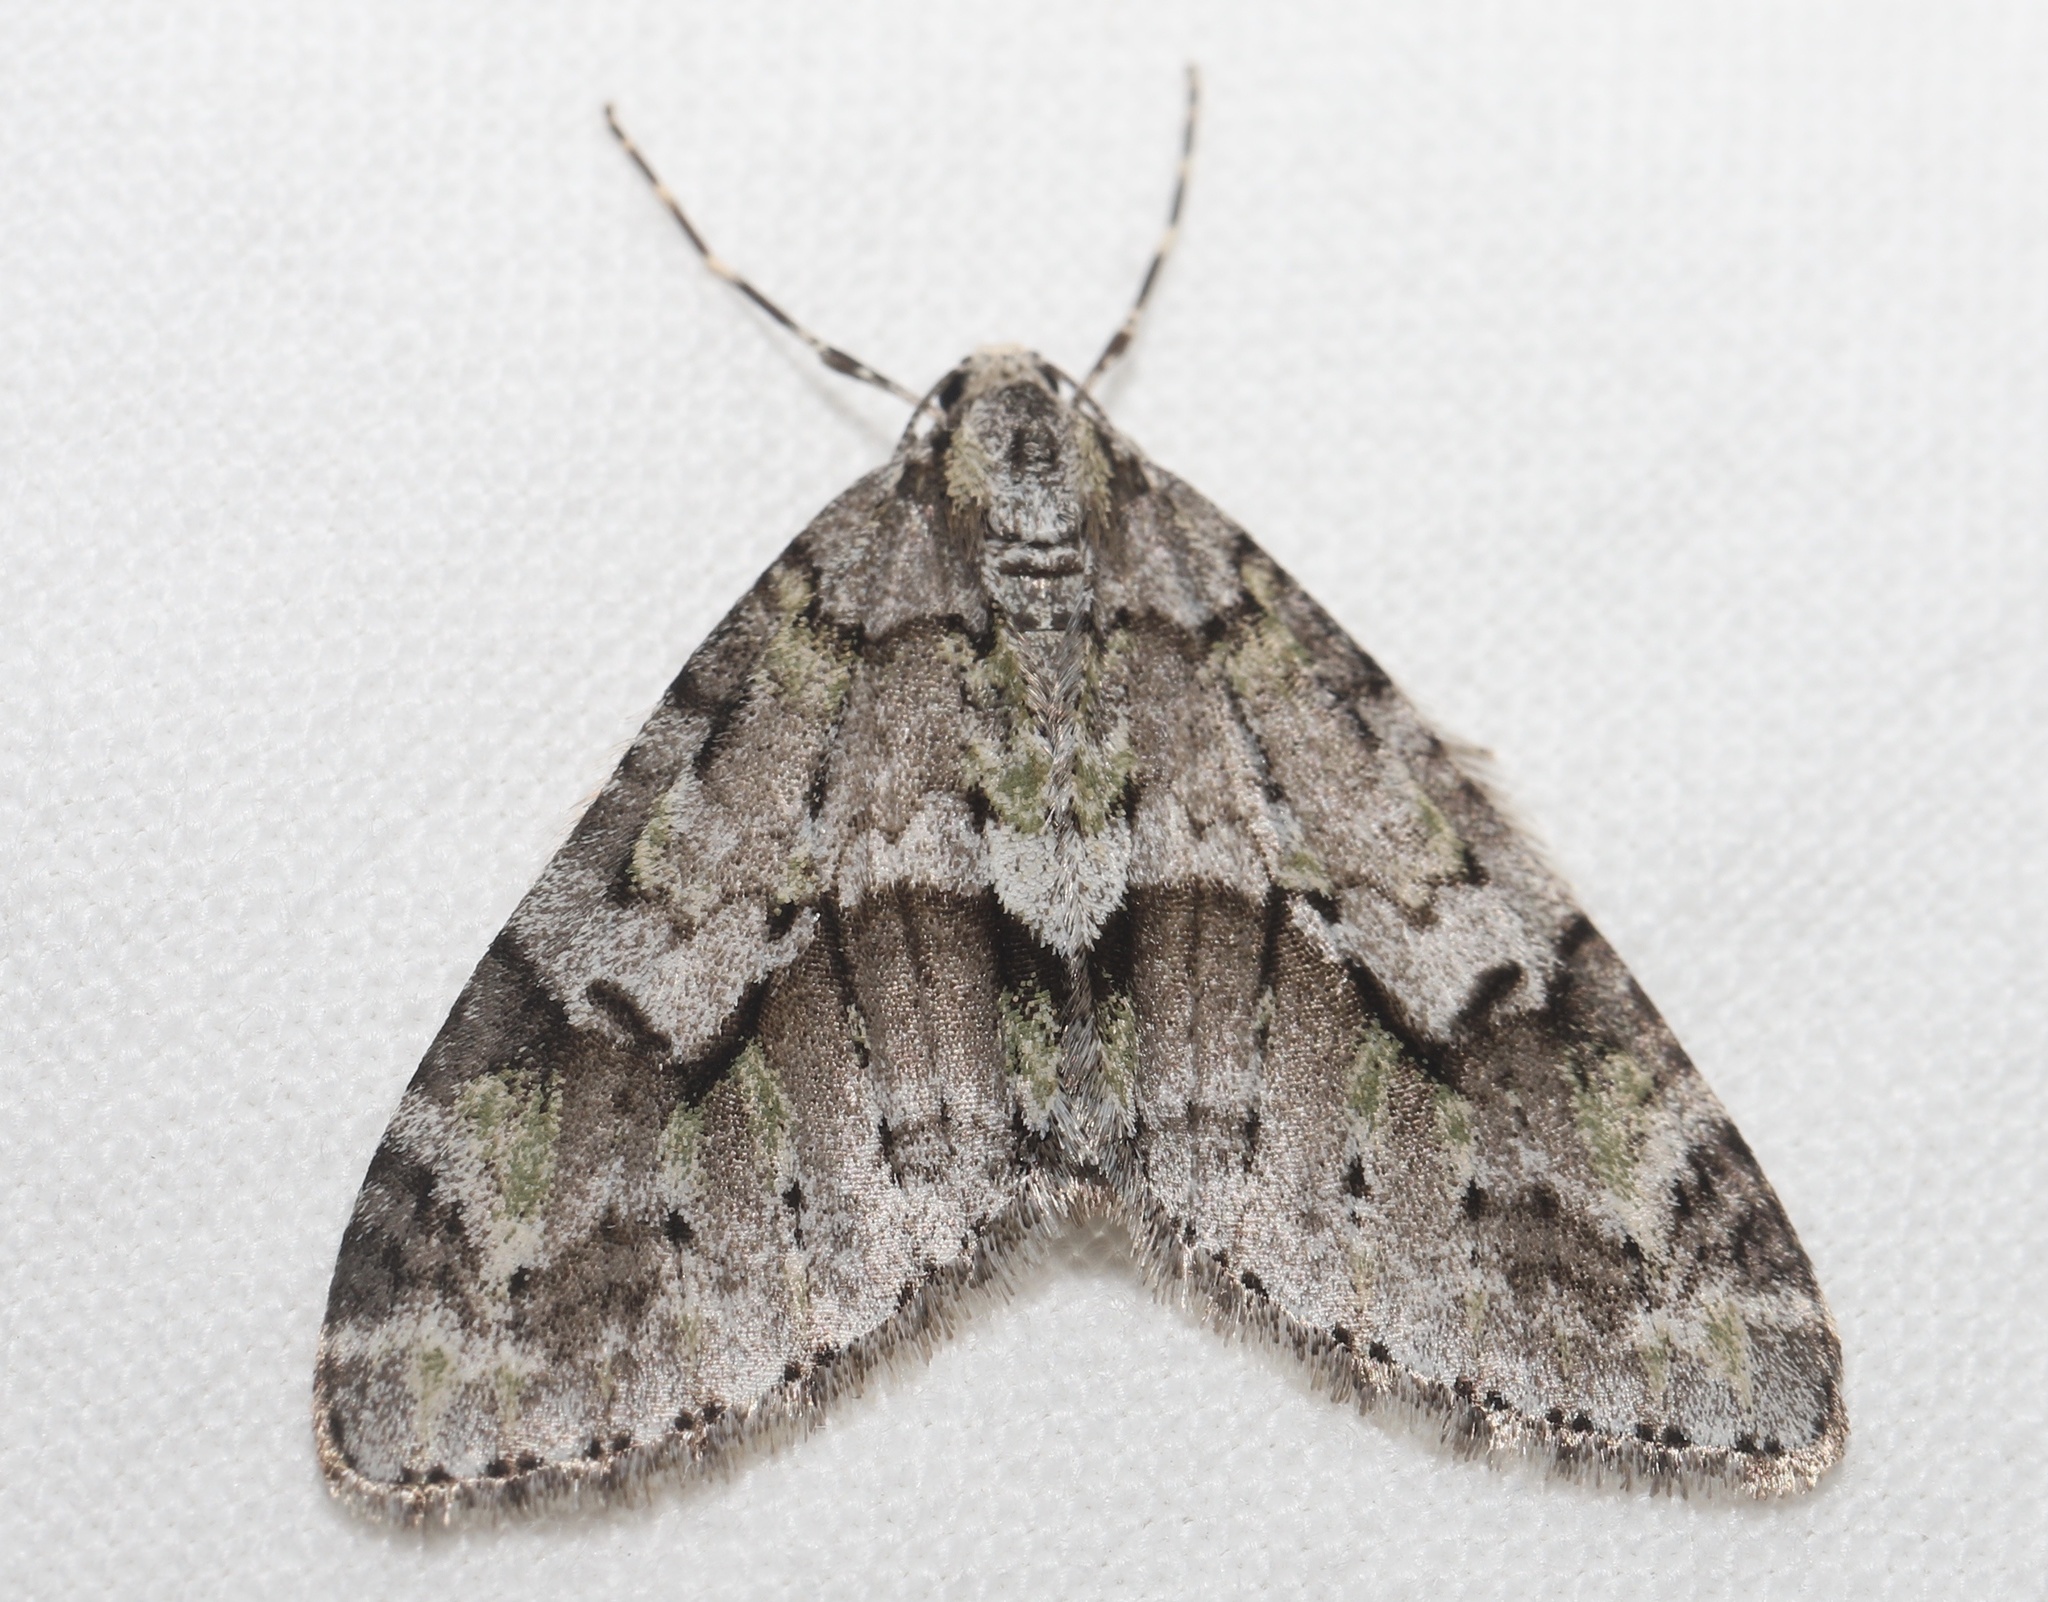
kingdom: Animalia
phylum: Arthropoda
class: Insecta
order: Lepidoptera
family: Geometridae
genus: Cladara
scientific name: Cladara limitaria
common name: Mottled gray carpet
